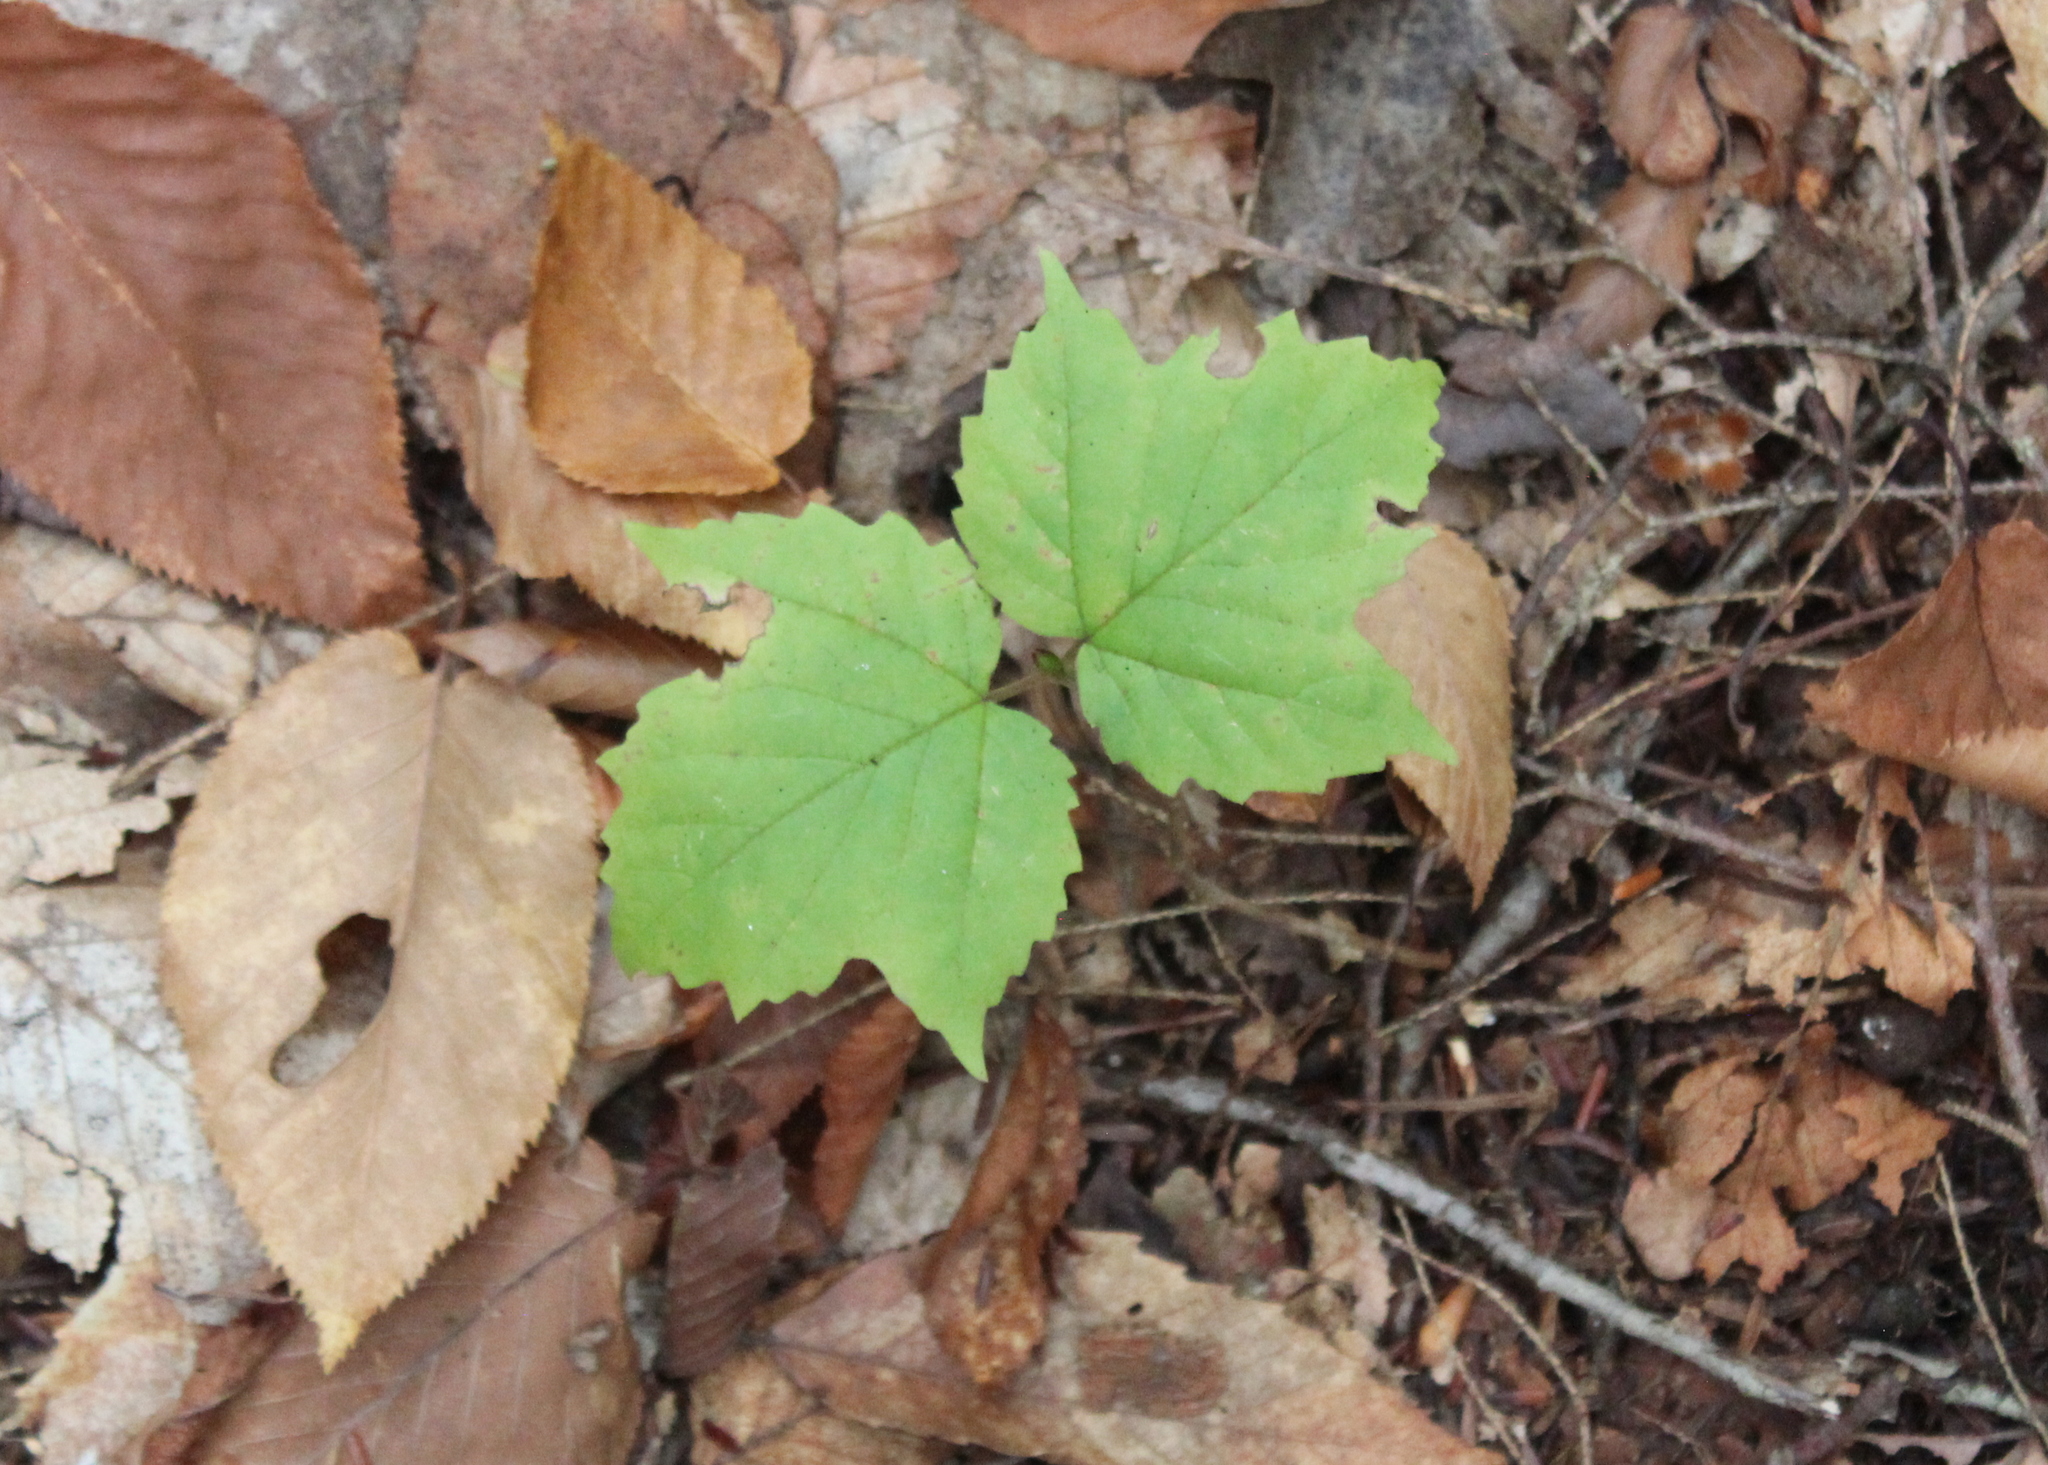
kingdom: Plantae
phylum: Tracheophyta
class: Magnoliopsida
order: Dipsacales
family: Viburnaceae
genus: Viburnum
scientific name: Viburnum acerifolium
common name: Dockmackie
